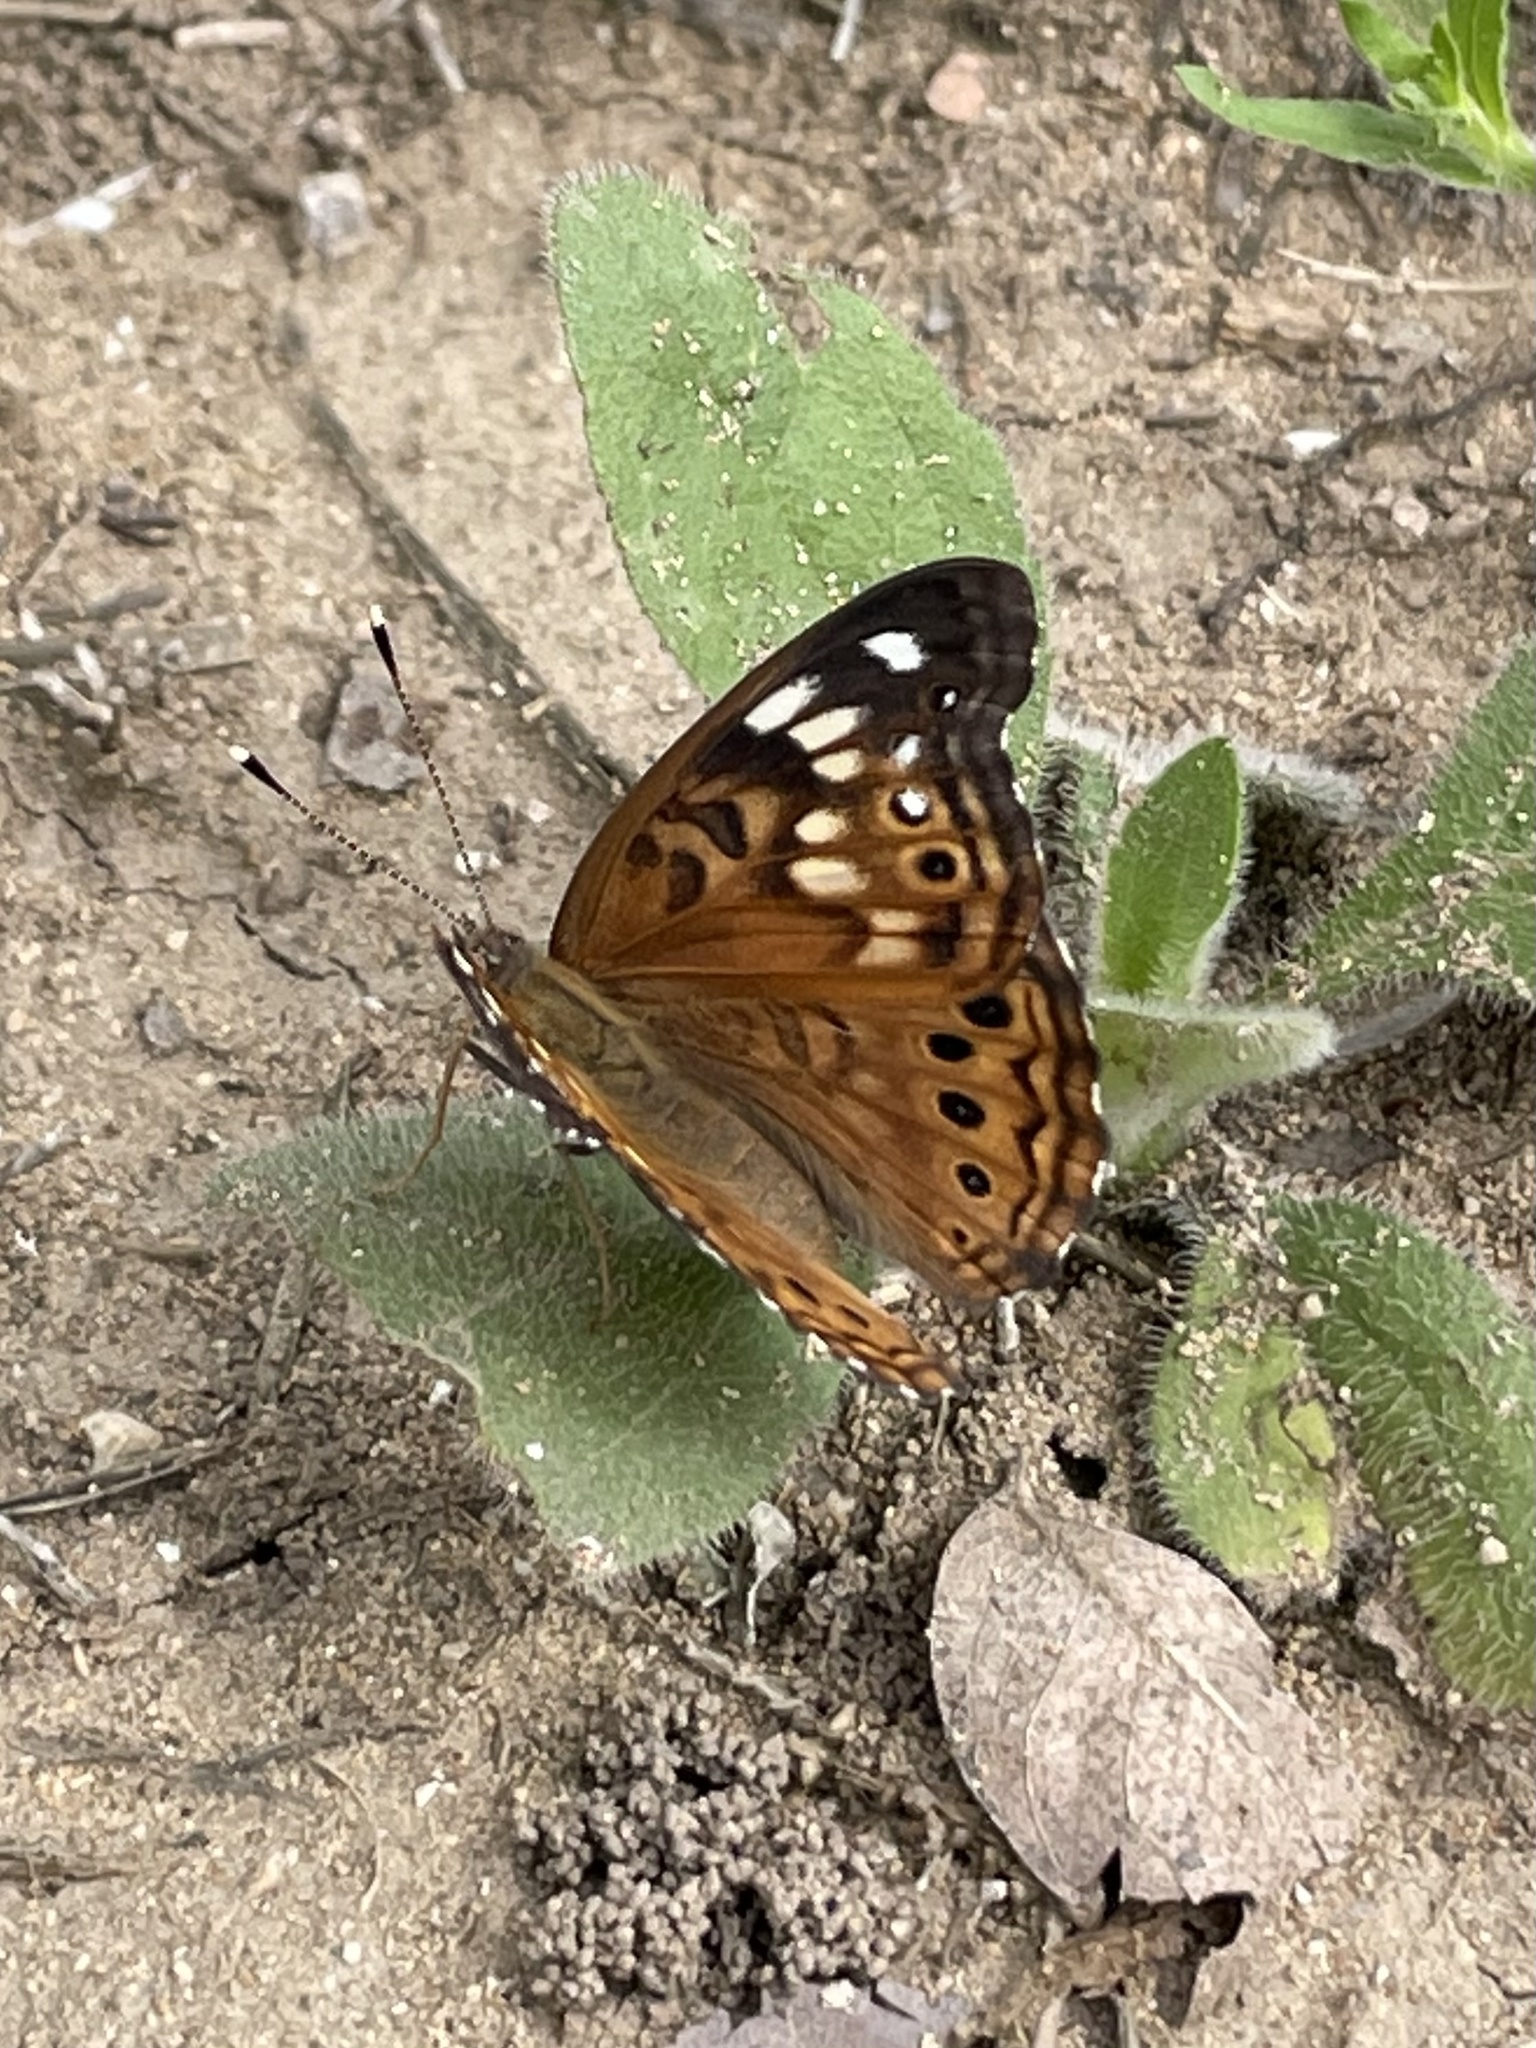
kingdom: Animalia
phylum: Arthropoda
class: Insecta
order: Lepidoptera
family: Nymphalidae
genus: Asterocampa
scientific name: Asterocampa celtis
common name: Hackberry emperor
